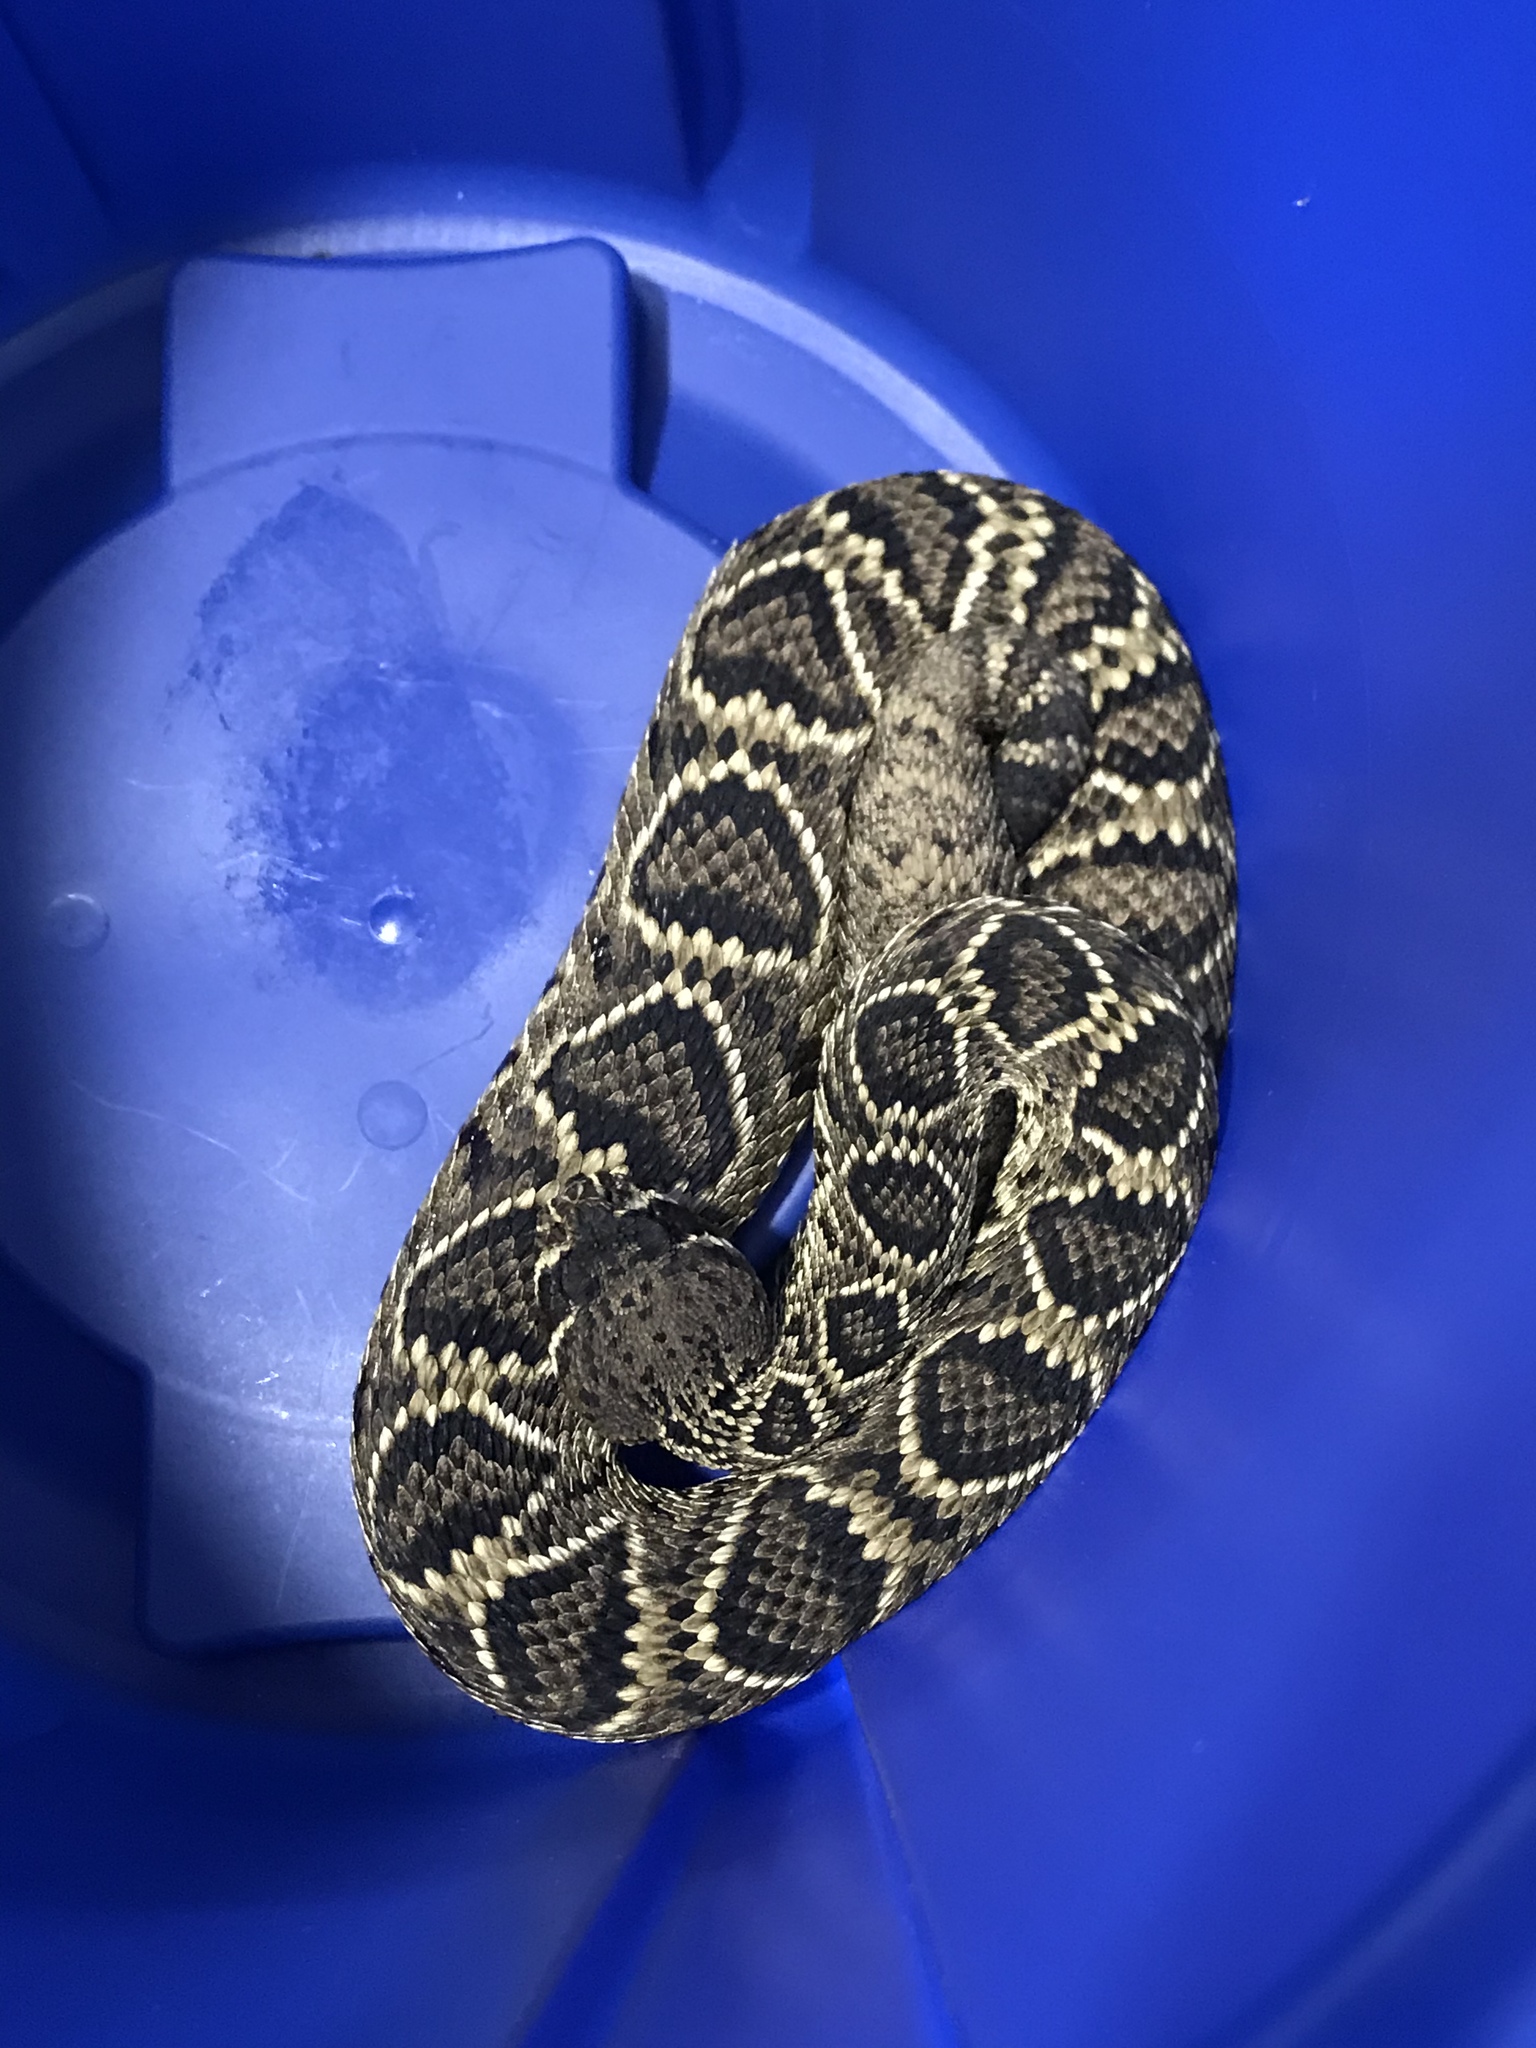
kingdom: Animalia
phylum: Chordata
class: Squamata
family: Viperidae
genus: Crotalus
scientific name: Crotalus adamanteus
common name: Eastern diamondback rattlesnake
